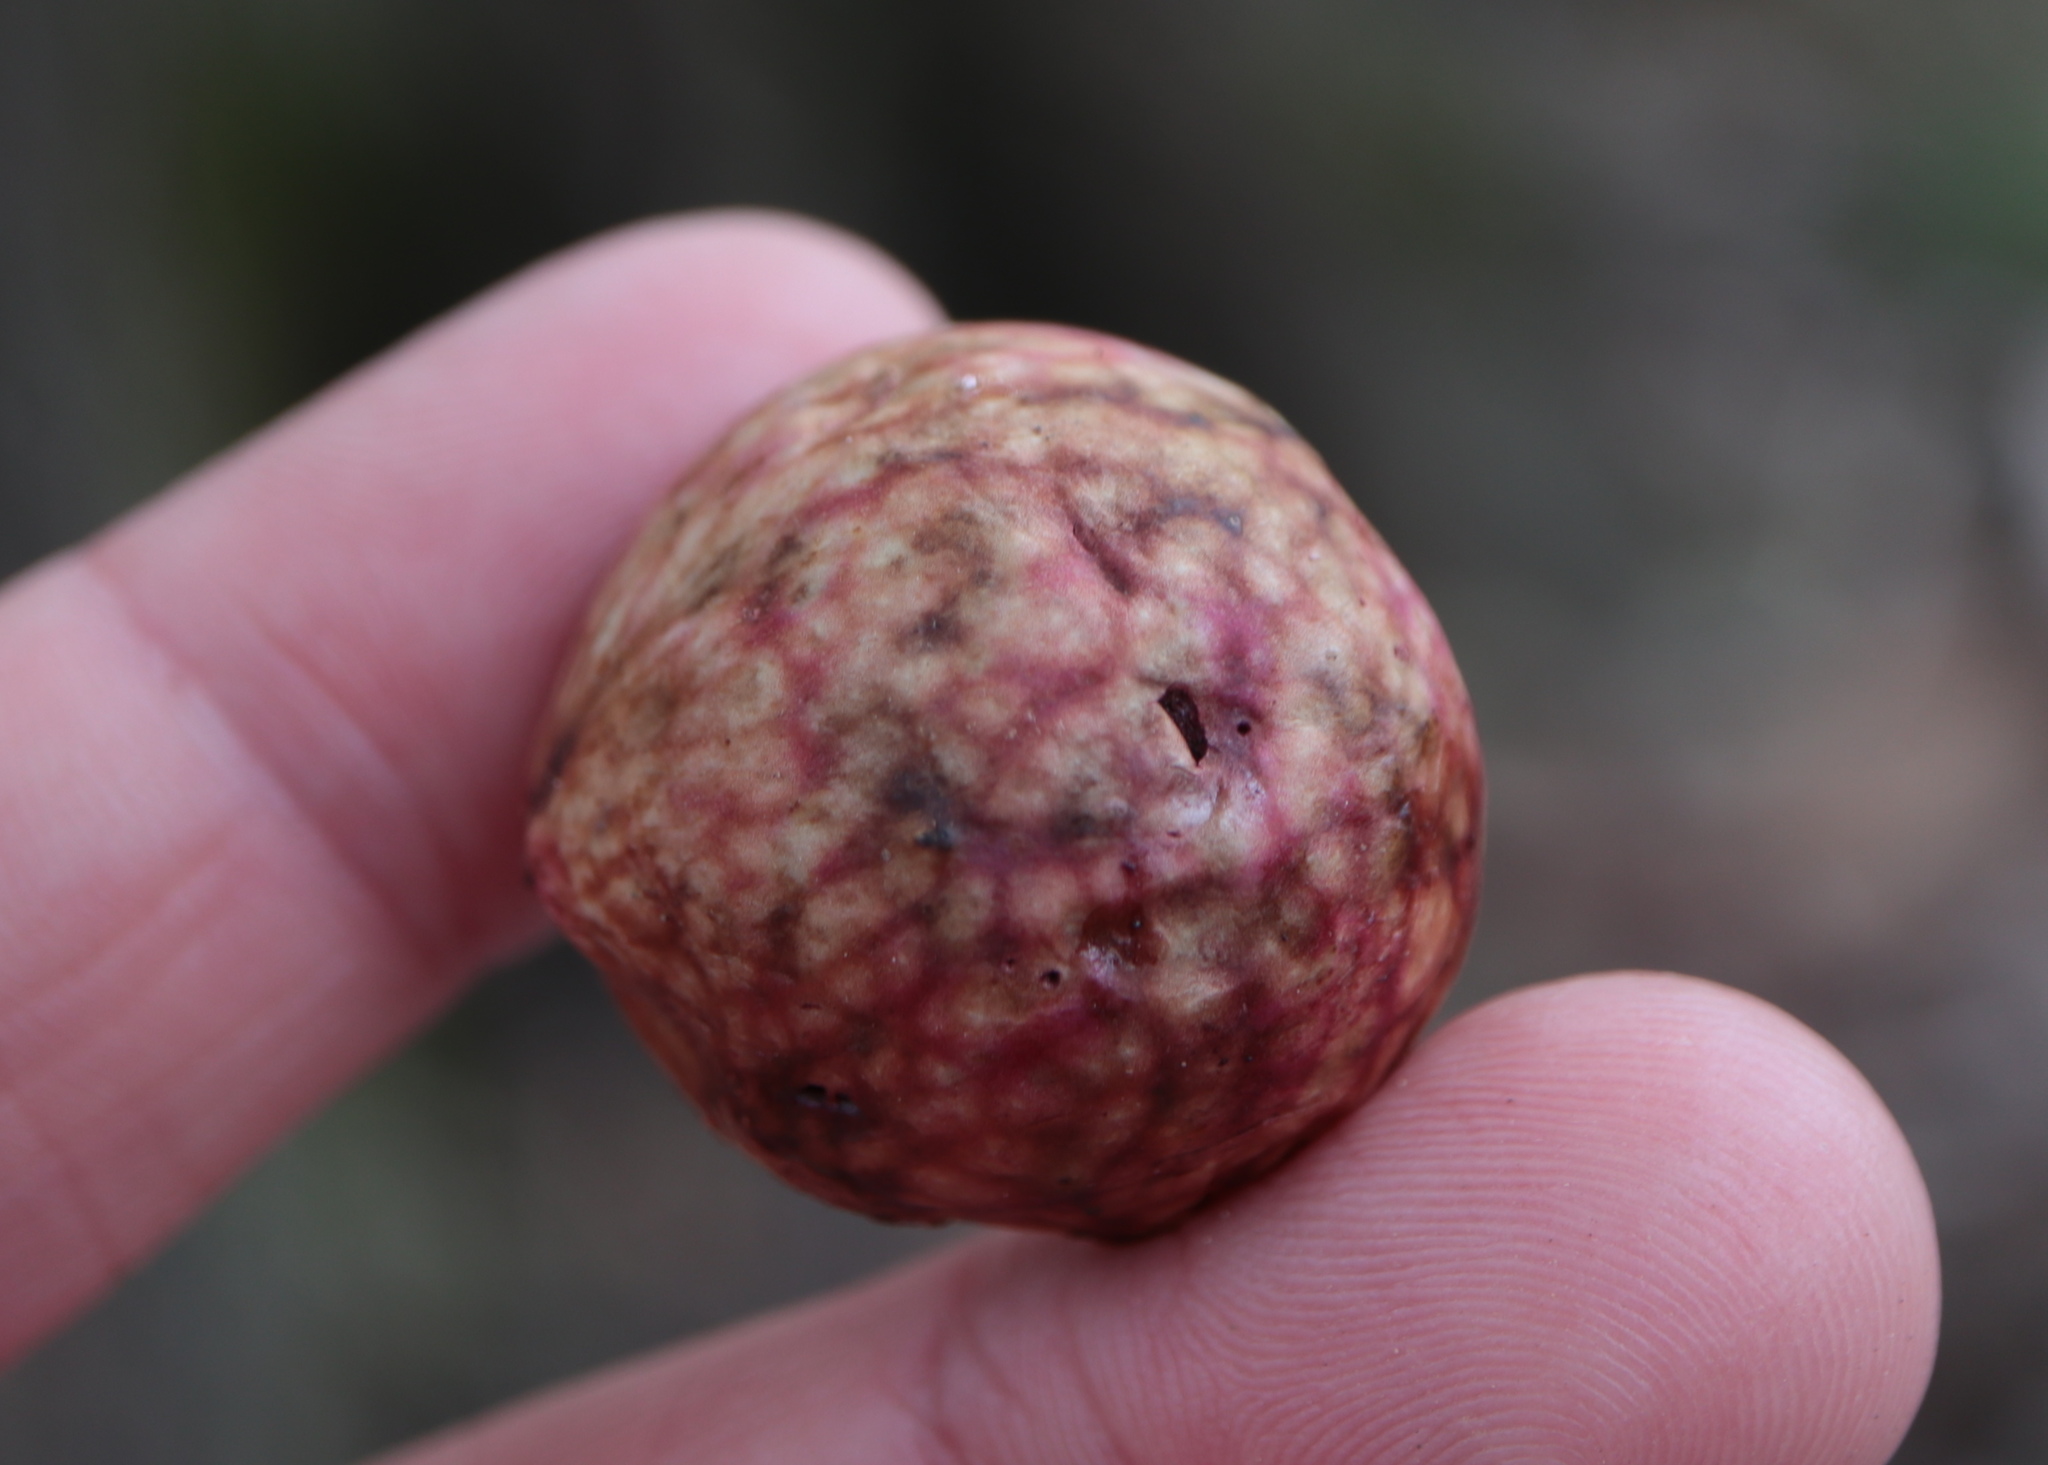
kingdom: Animalia
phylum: Arthropoda
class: Insecta
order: Hymenoptera
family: Cynipidae
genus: Amphibolips
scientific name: Amphibolips
